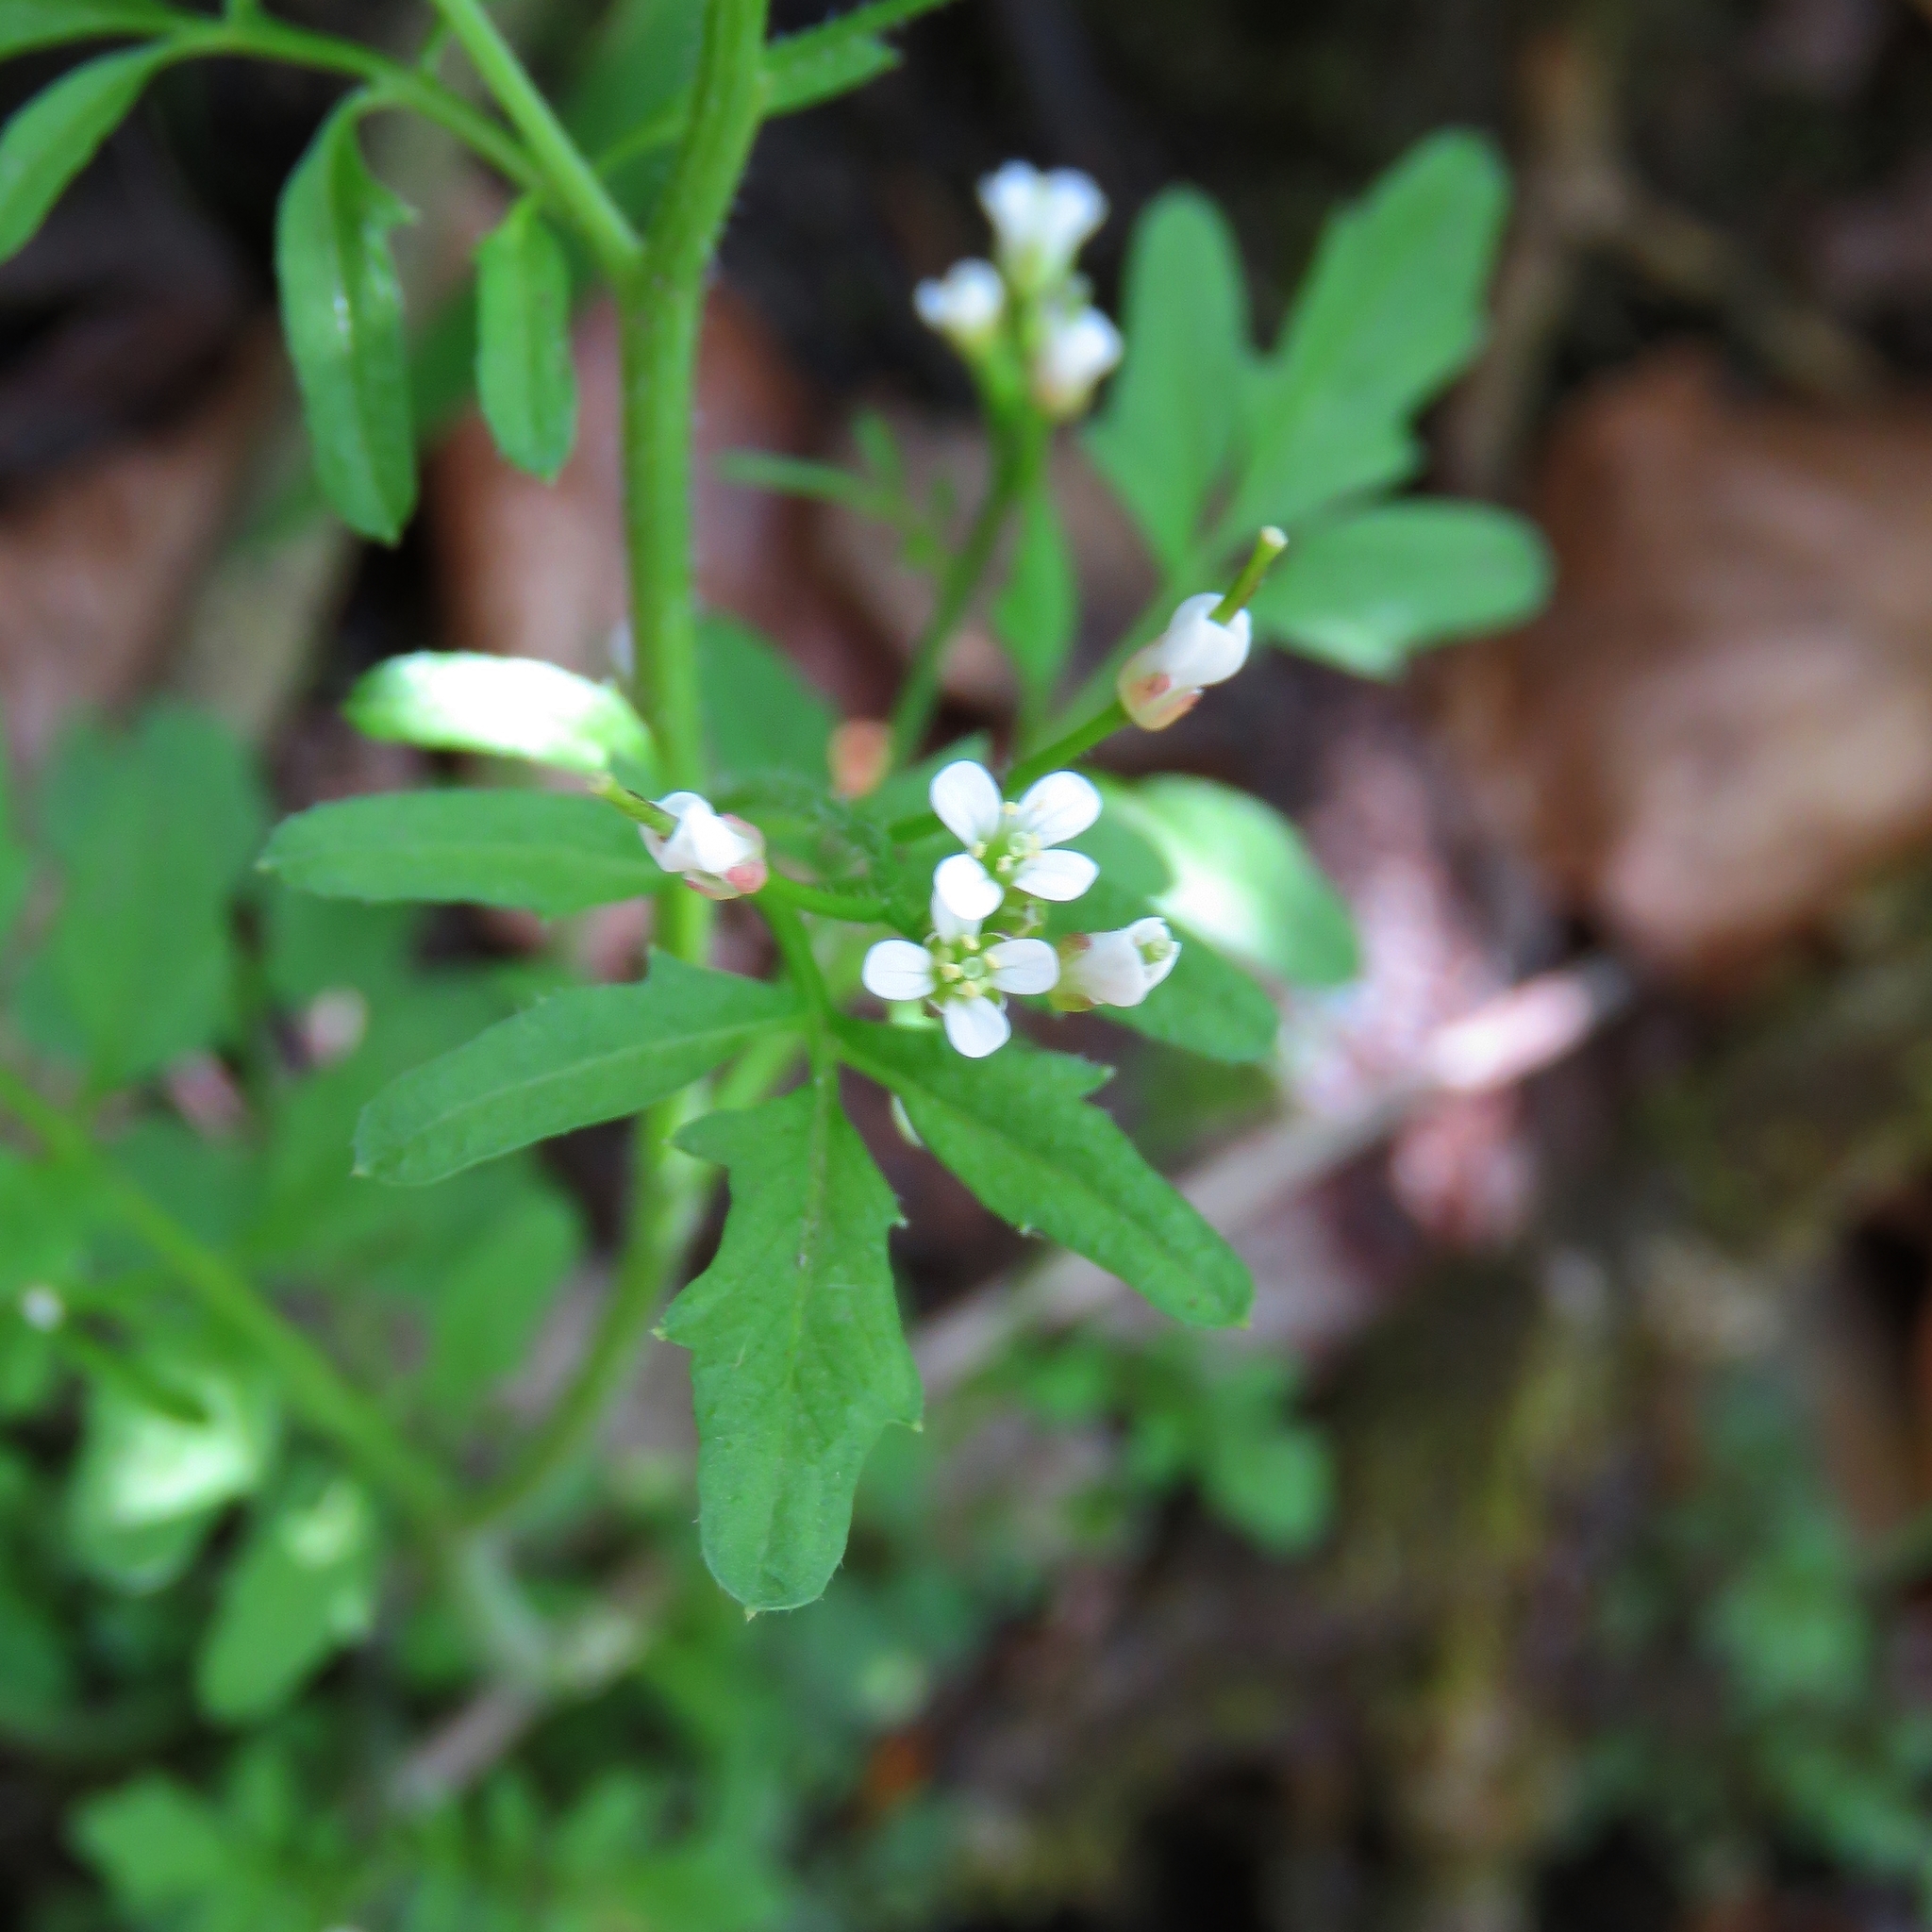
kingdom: Plantae
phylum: Tracheophyta
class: Magnoliopsida
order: Brassicales
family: Brassicaceae
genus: Cardamine
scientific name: Cardamine hirsuta
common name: Hairy bittercress
